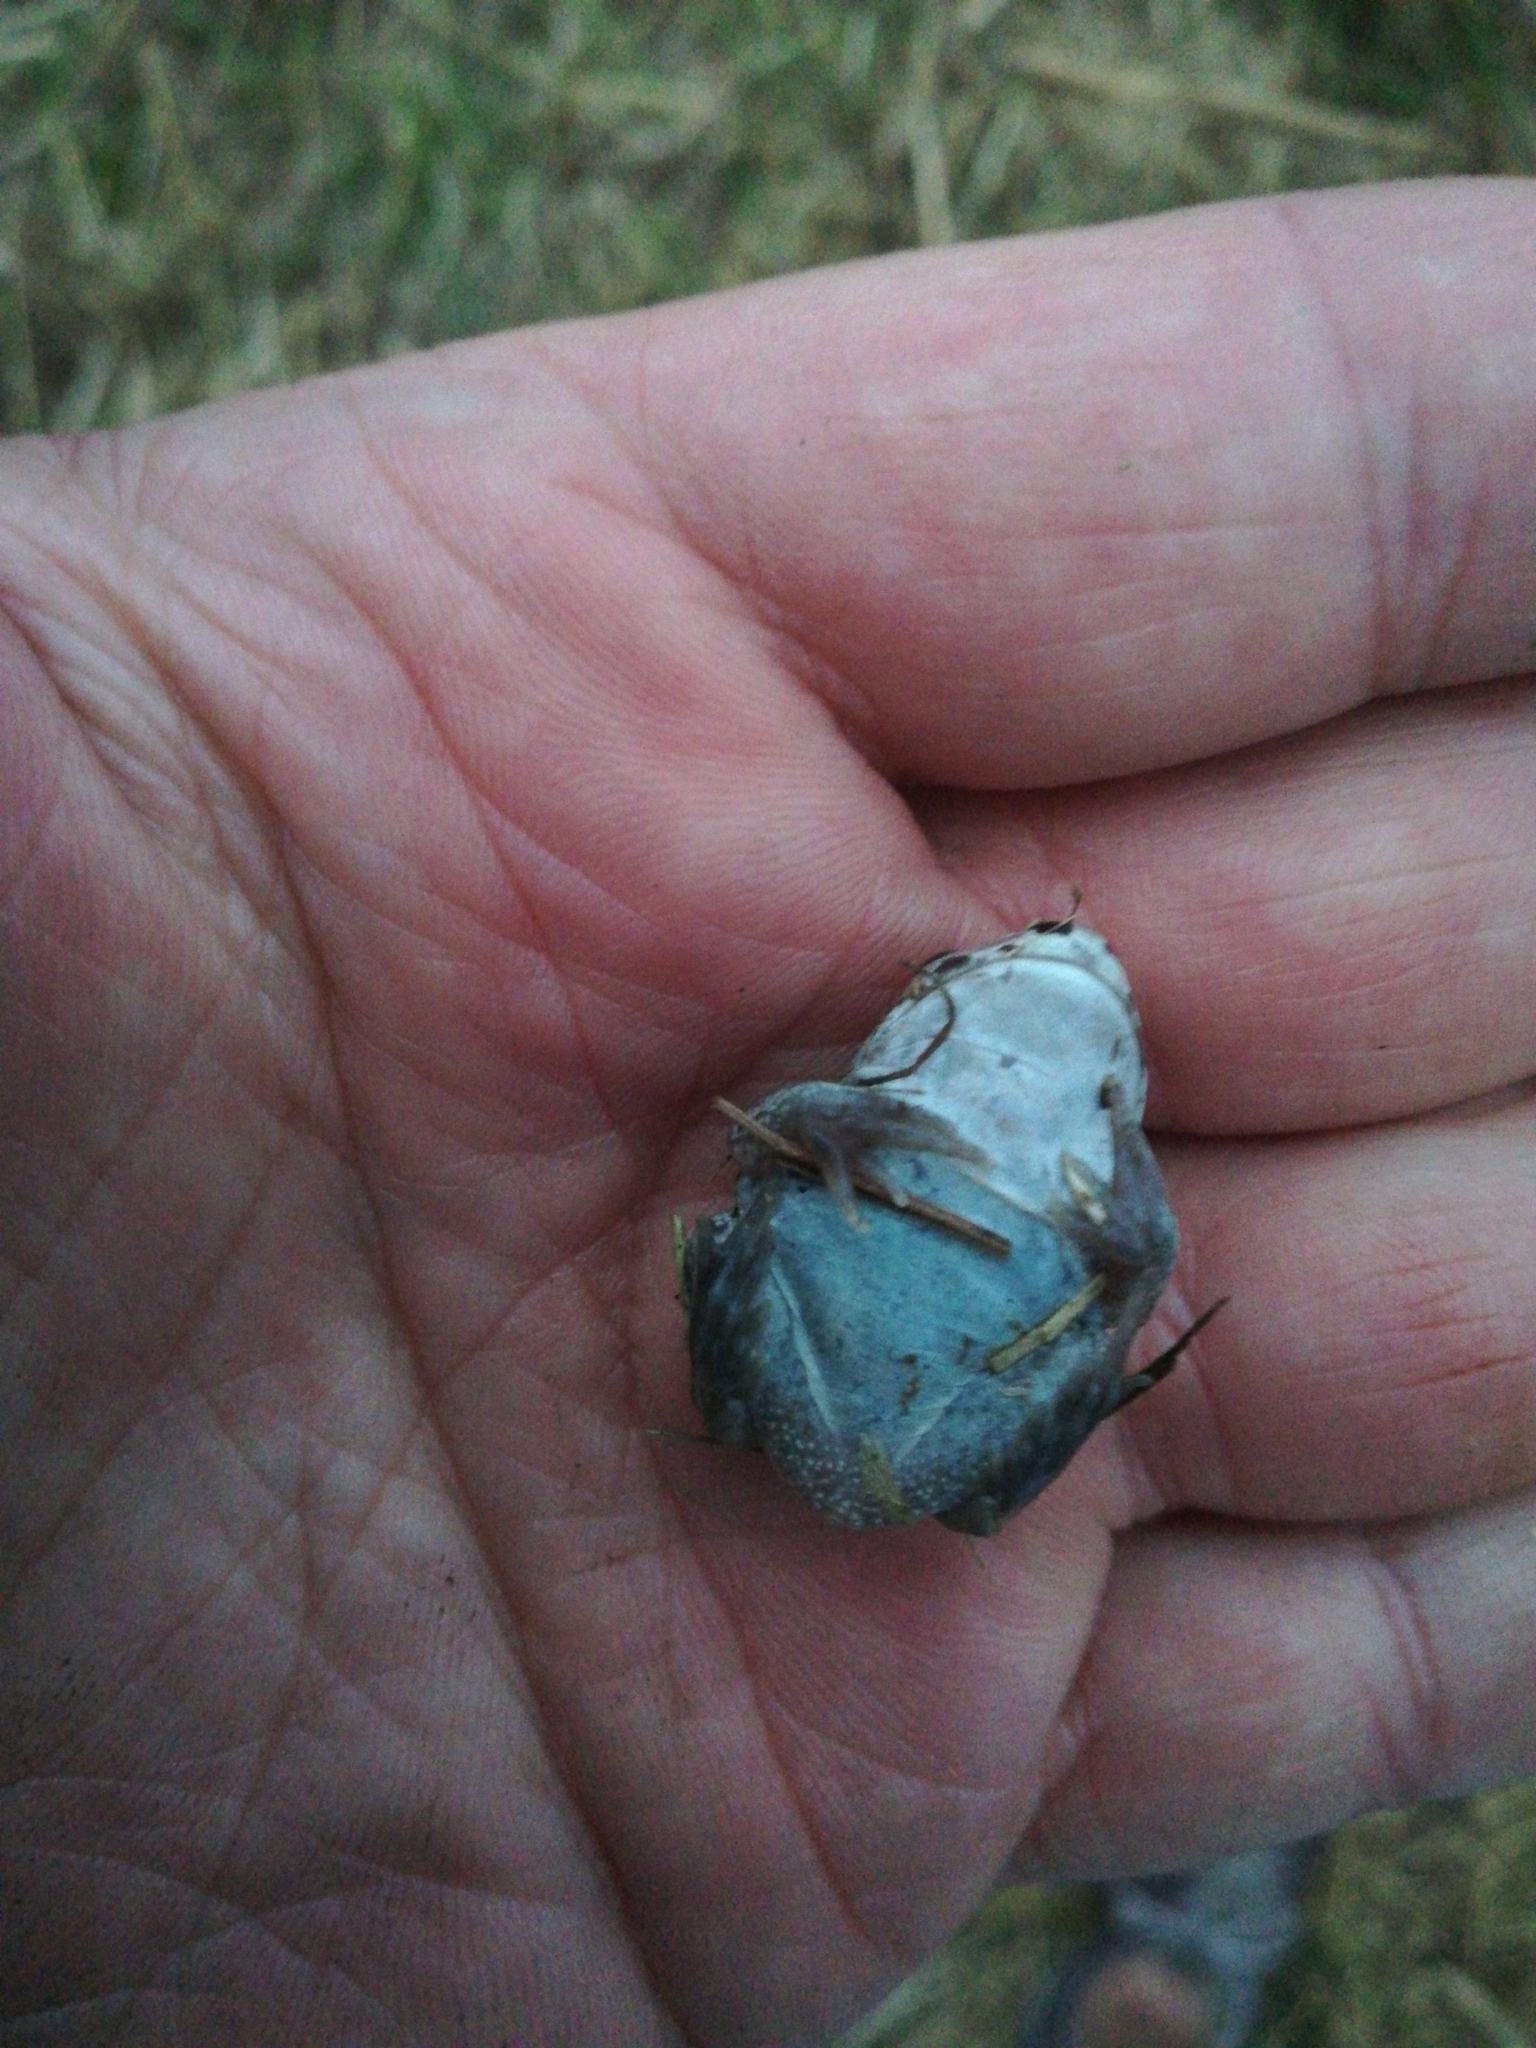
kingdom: Animalia
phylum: Chordata
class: Amphibia
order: Anura
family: Pelobatidae
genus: Pelobates
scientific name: Pelobates fuscus
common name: Common eurasian spadefoot toad
